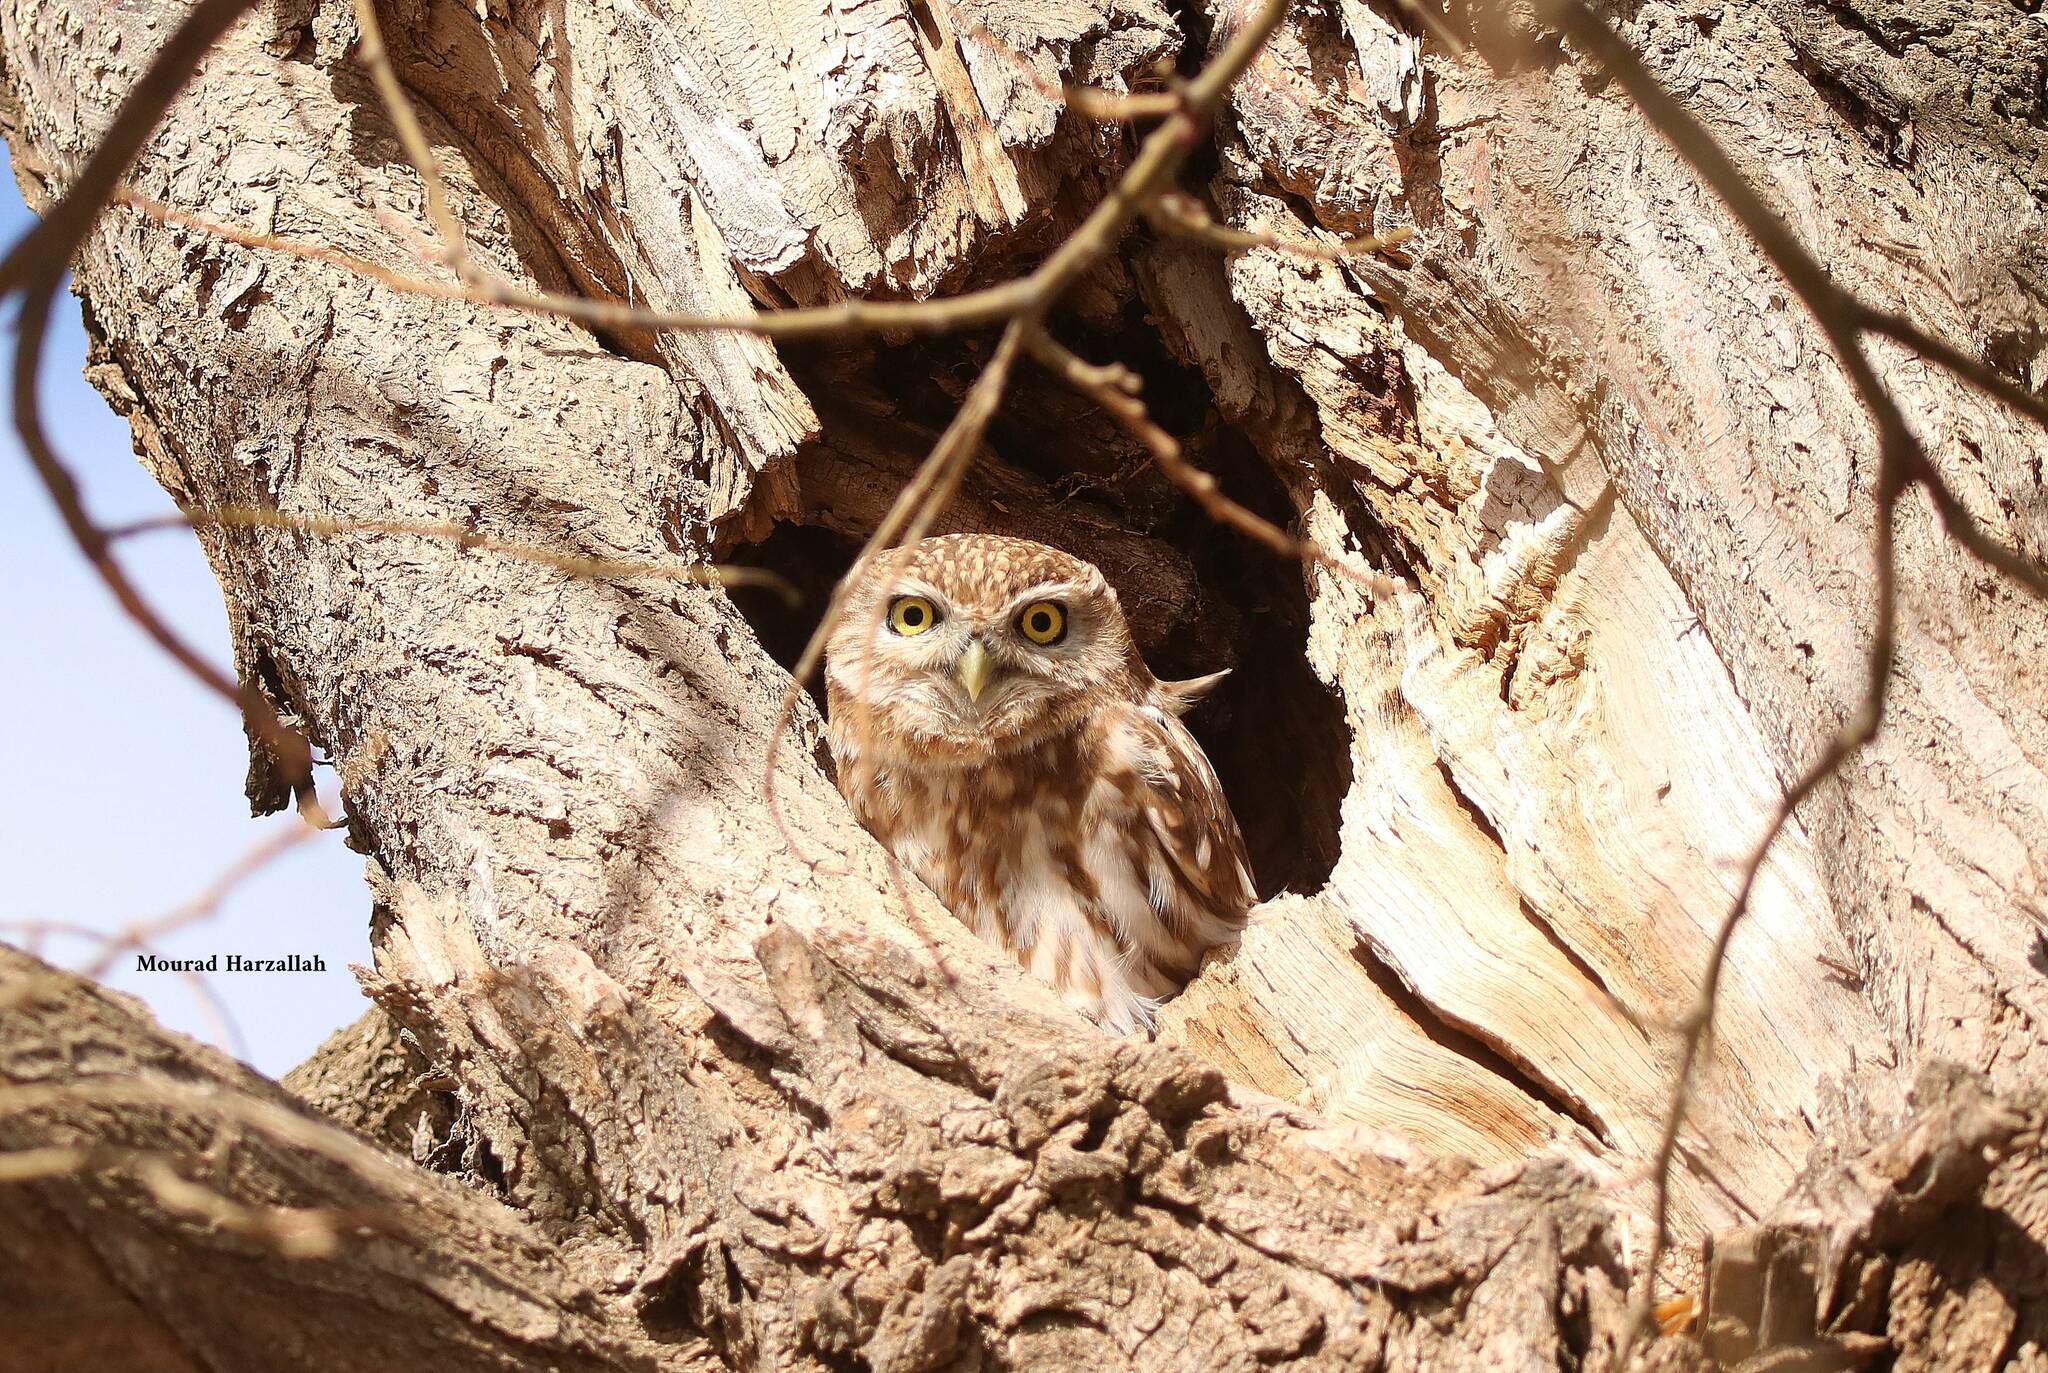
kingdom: Animalia
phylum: Chordata
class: Aves
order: Strigiformes
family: Strigidae
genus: Athene
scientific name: Athene noctua
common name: Little owl
